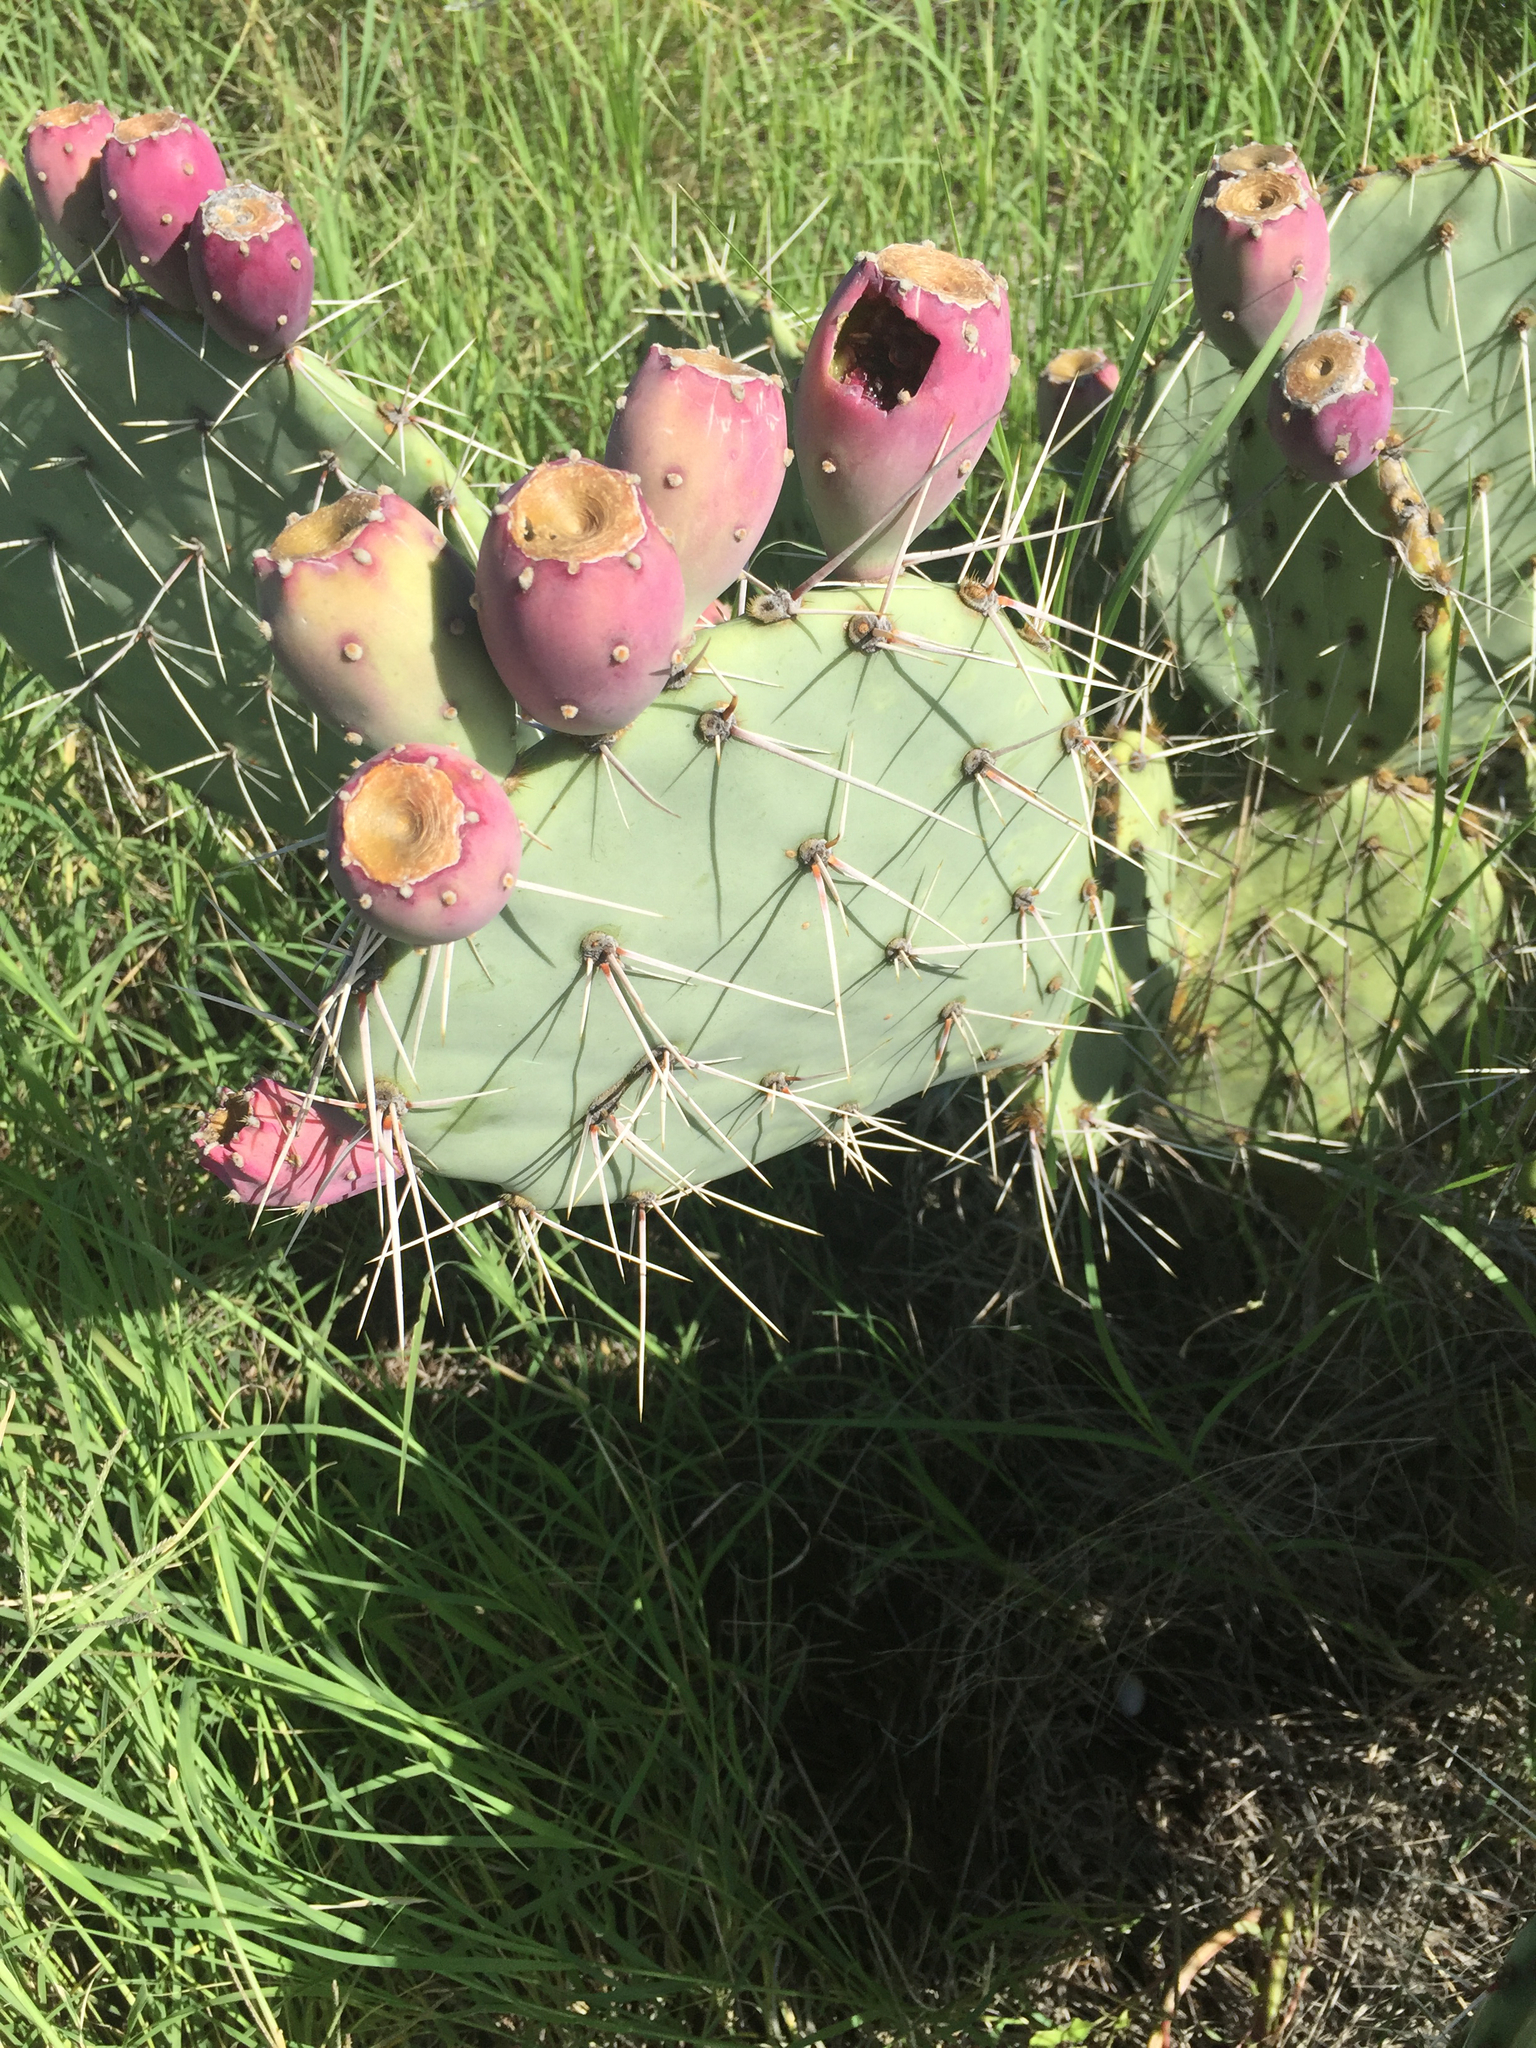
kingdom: Plantae
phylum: Tracheophyta
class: Magnoliopsida
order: Caryophyllales
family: Cactaceae
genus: Opuntia
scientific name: Opuntia engelmannii
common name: Cactus-apple
